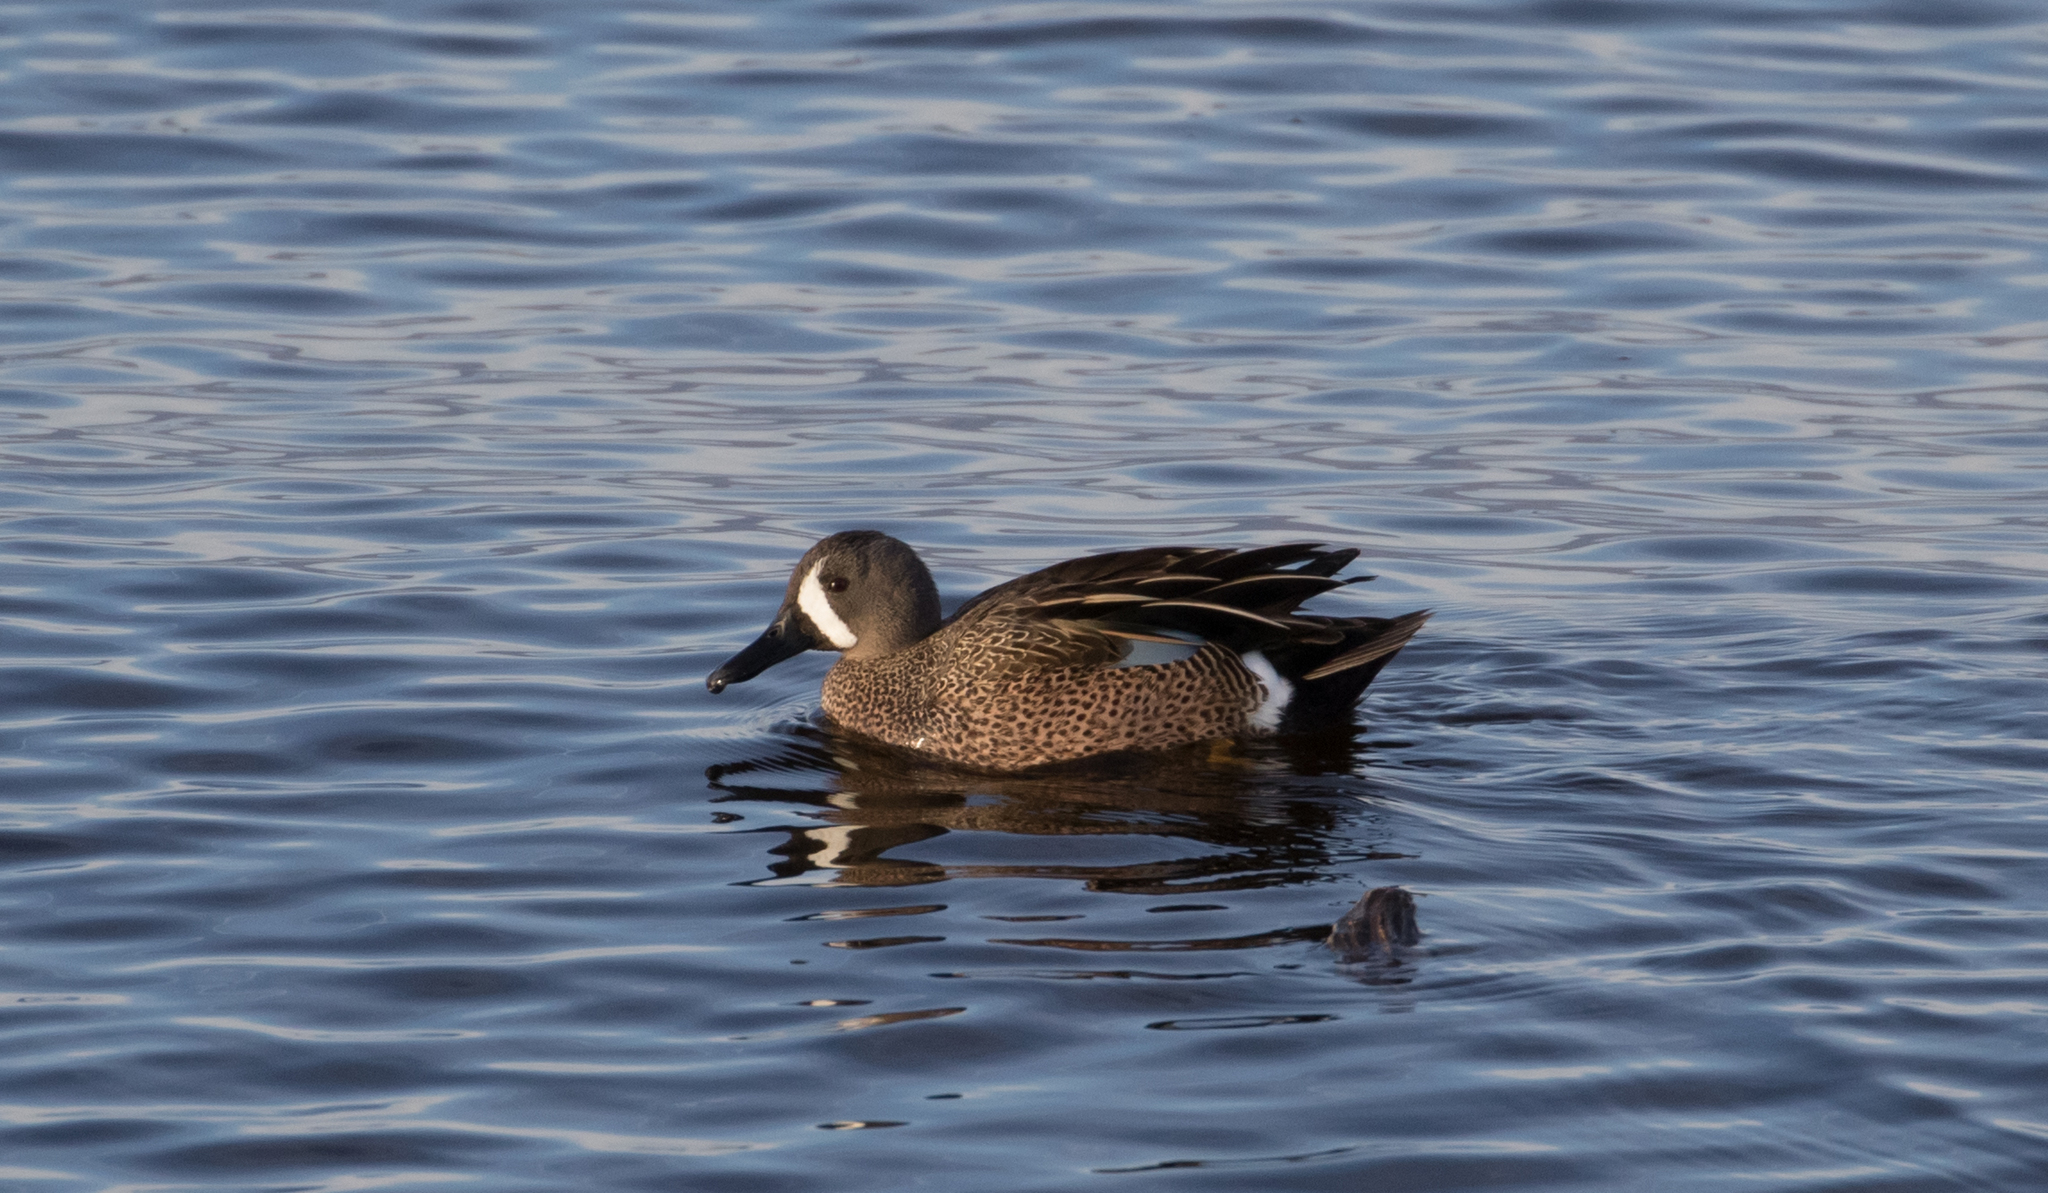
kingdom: Animalia
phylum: Chordata
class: Aves
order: Anseriformes
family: Anatidae
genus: Spatula
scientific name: Spatula discors
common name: Blue-winged teal
